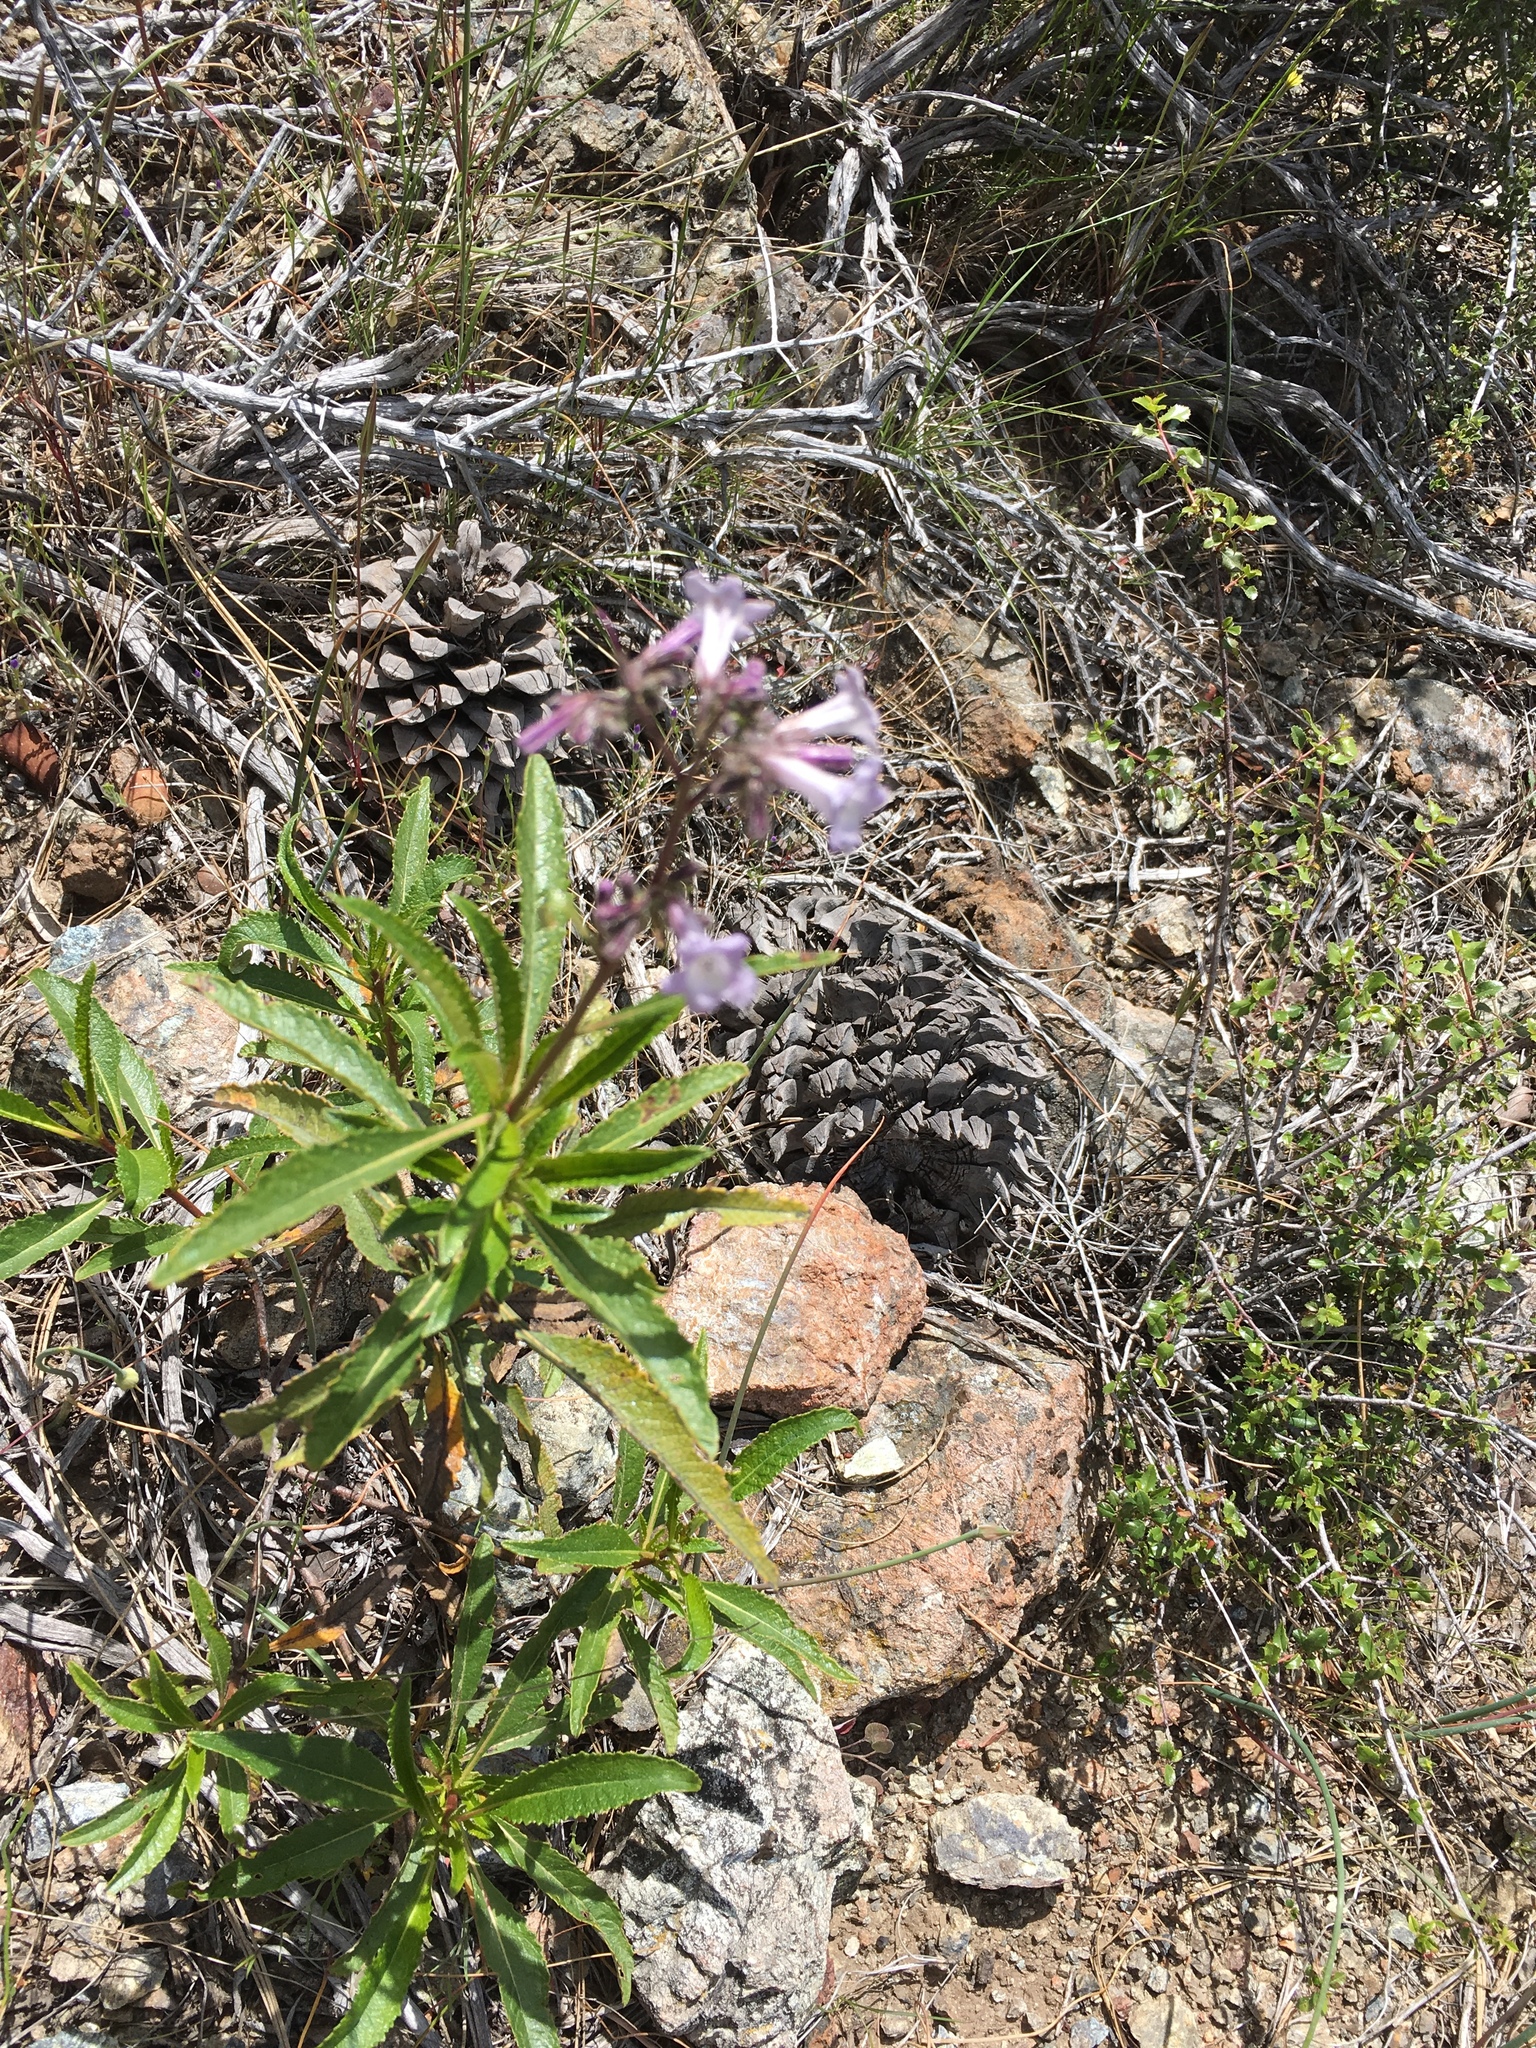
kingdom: Plantae
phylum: Tracheophyta
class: Magnoliopsida
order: Boraginales
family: Namaceae
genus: Eriodictyon
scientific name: Eriodictyon californicum
